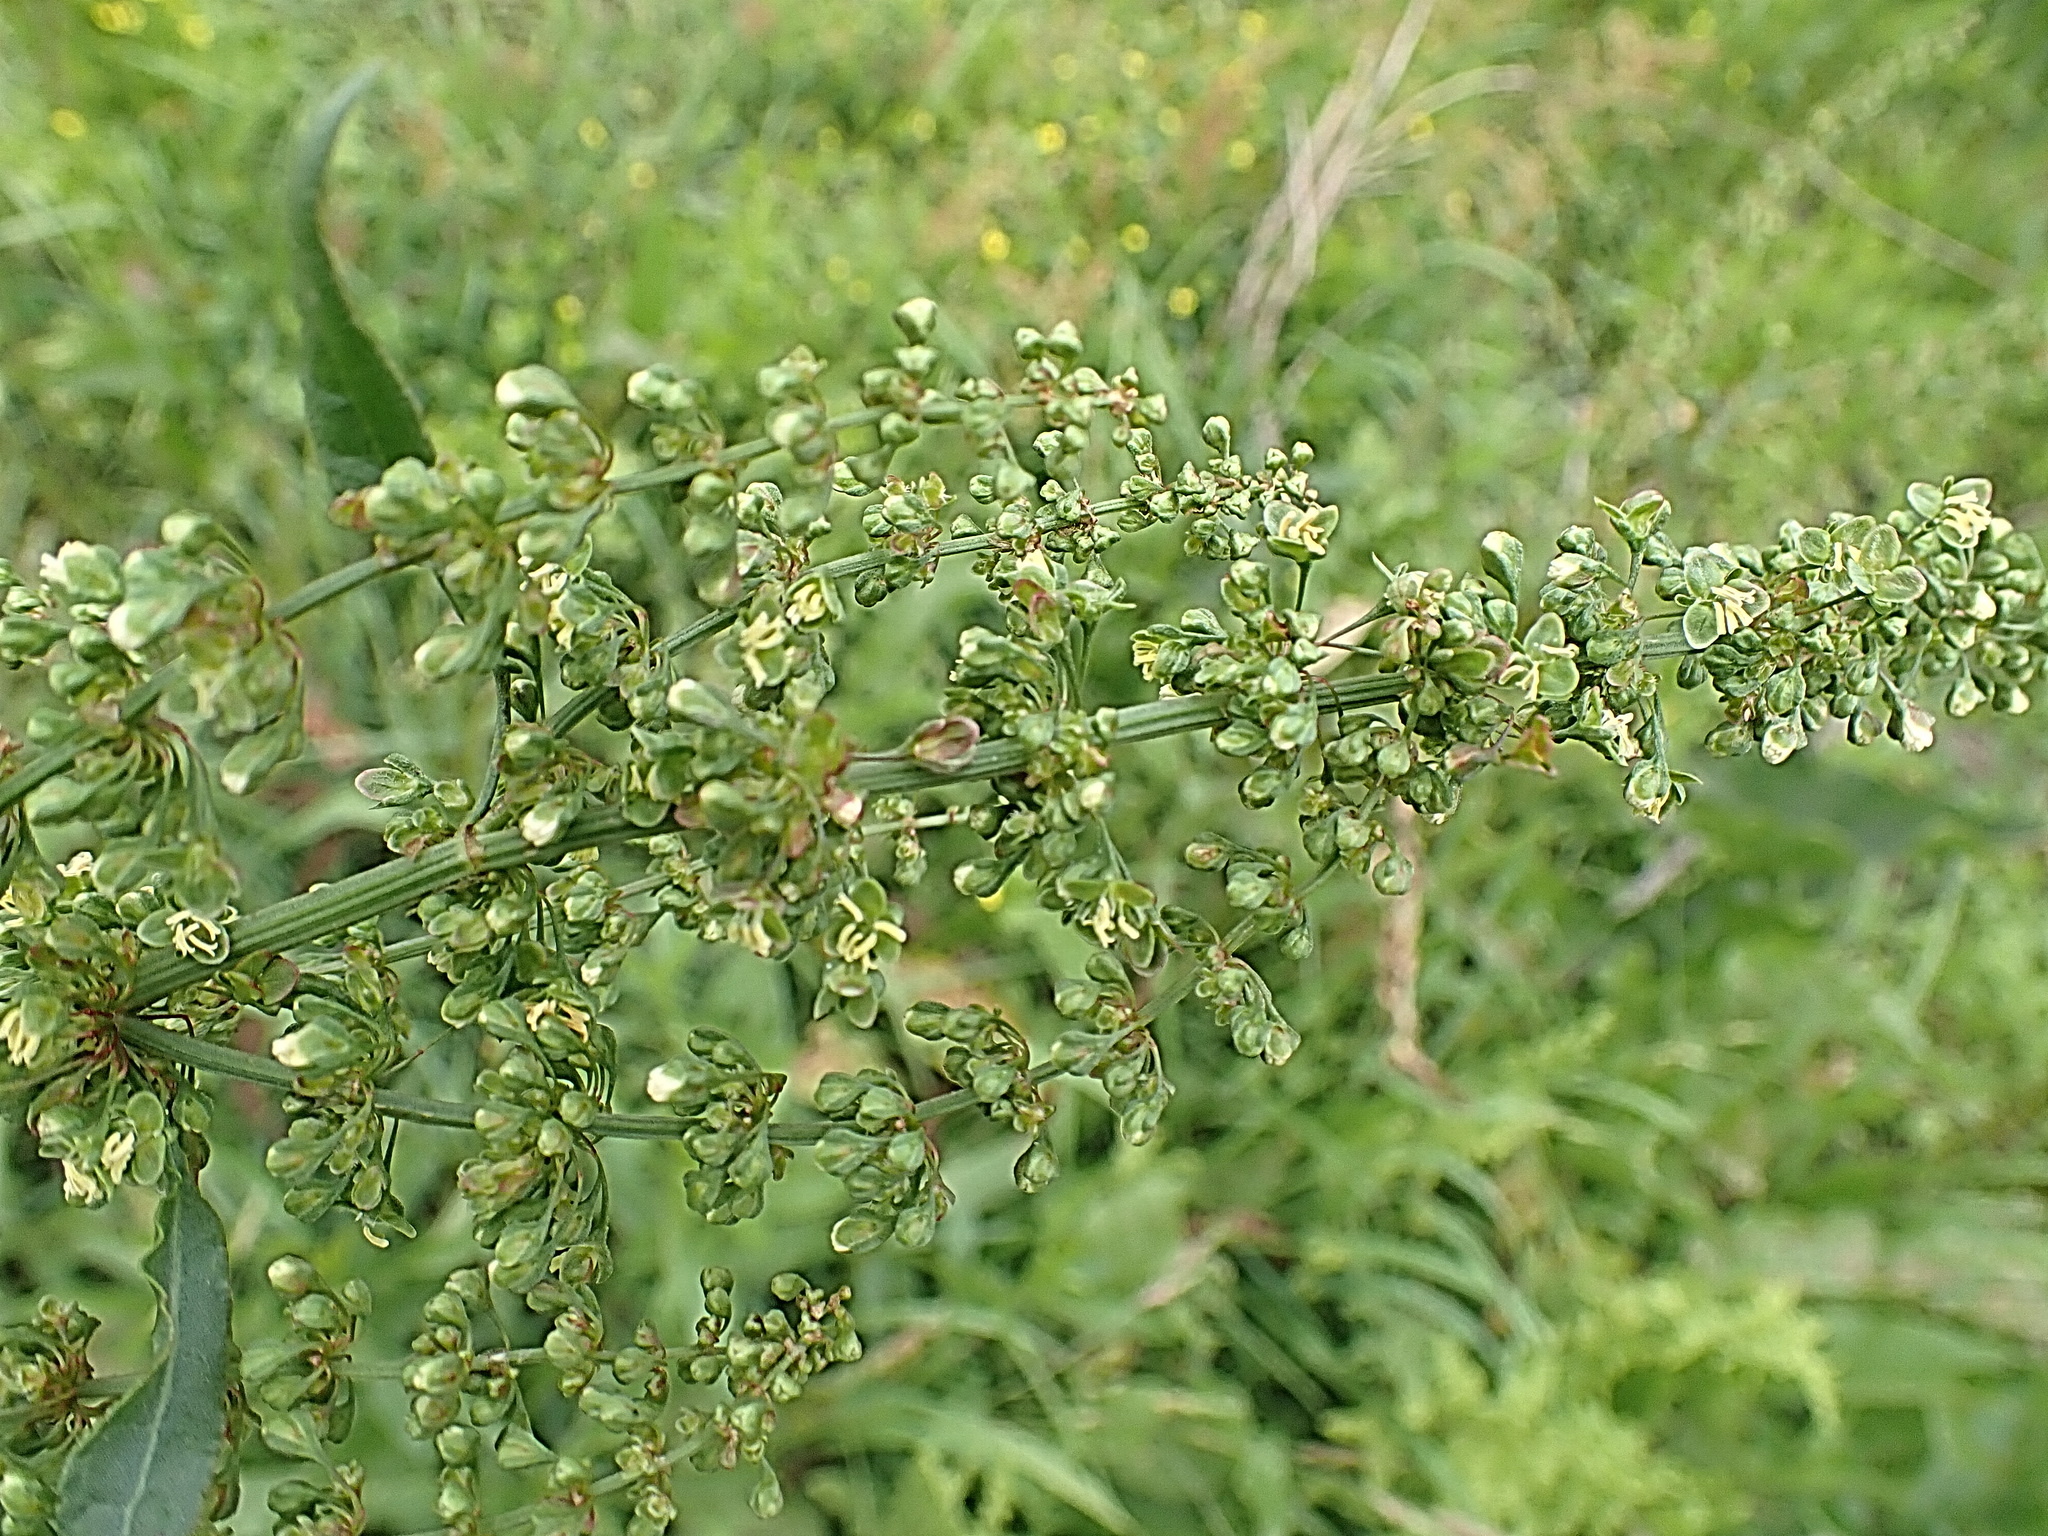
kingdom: Plantae
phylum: Tracheophyta
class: Magnoliopsida
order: Caryophyllales
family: Polygonaceae
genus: Rumex
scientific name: Rumex crispus
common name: Curled dock
